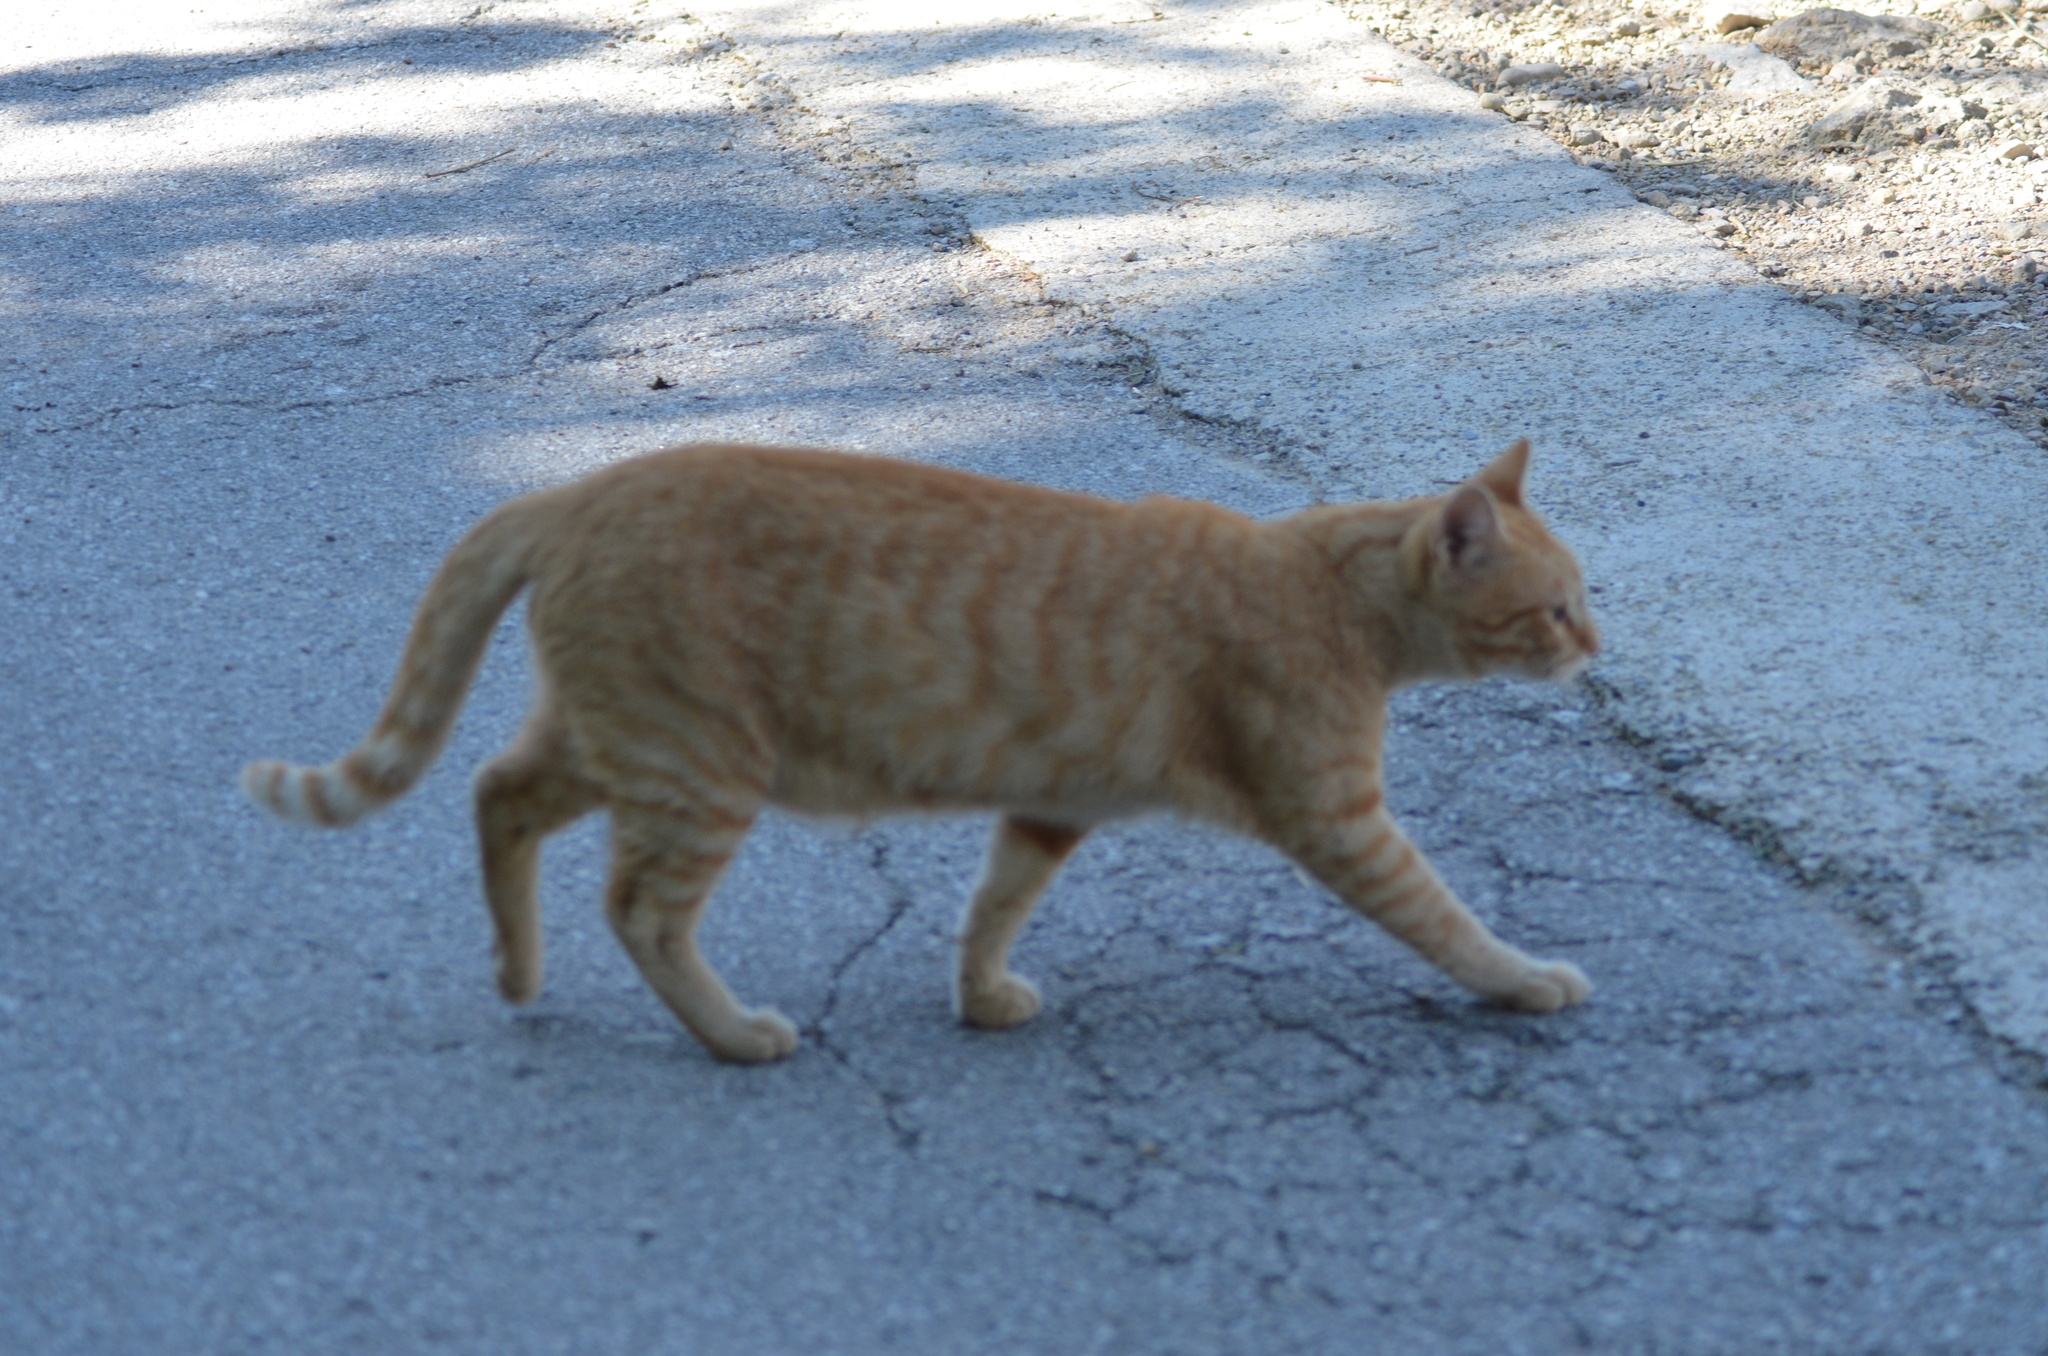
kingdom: Animalia
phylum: Chordata
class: Mammalia
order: Carnivora
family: Felidae
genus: Felis
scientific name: Felis catus
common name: Domestic cat
